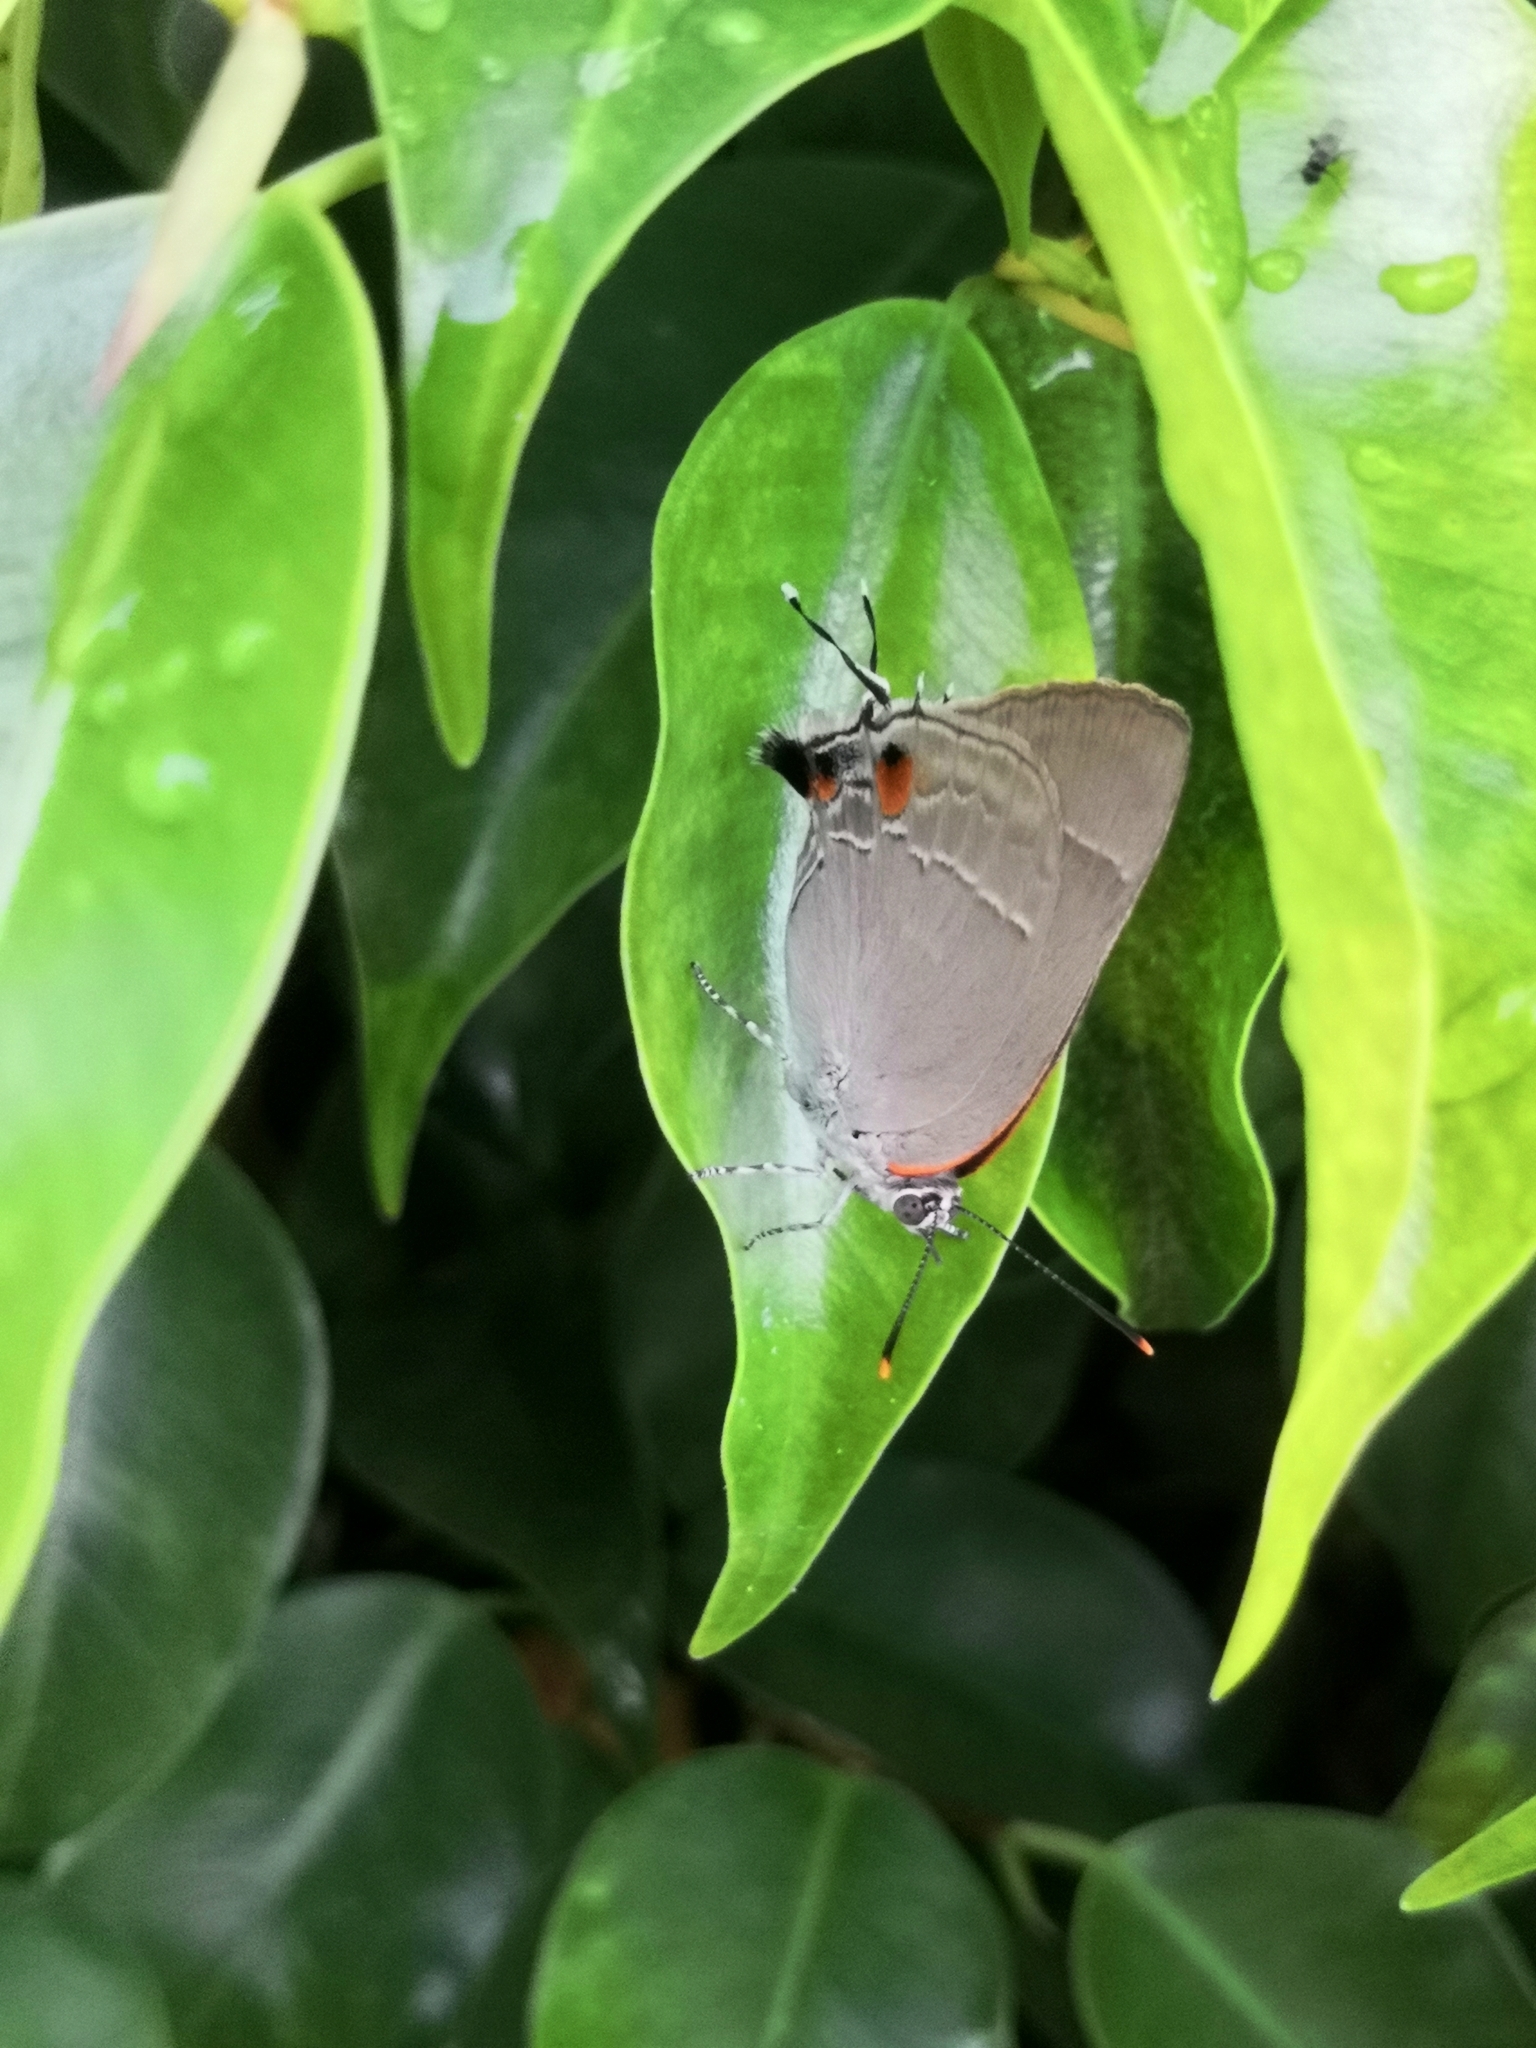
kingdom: Animalia
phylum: Arthropoda
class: Insecta
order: Lepidoptera
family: Lycaenidae
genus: Thecla
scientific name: Thecla marius
